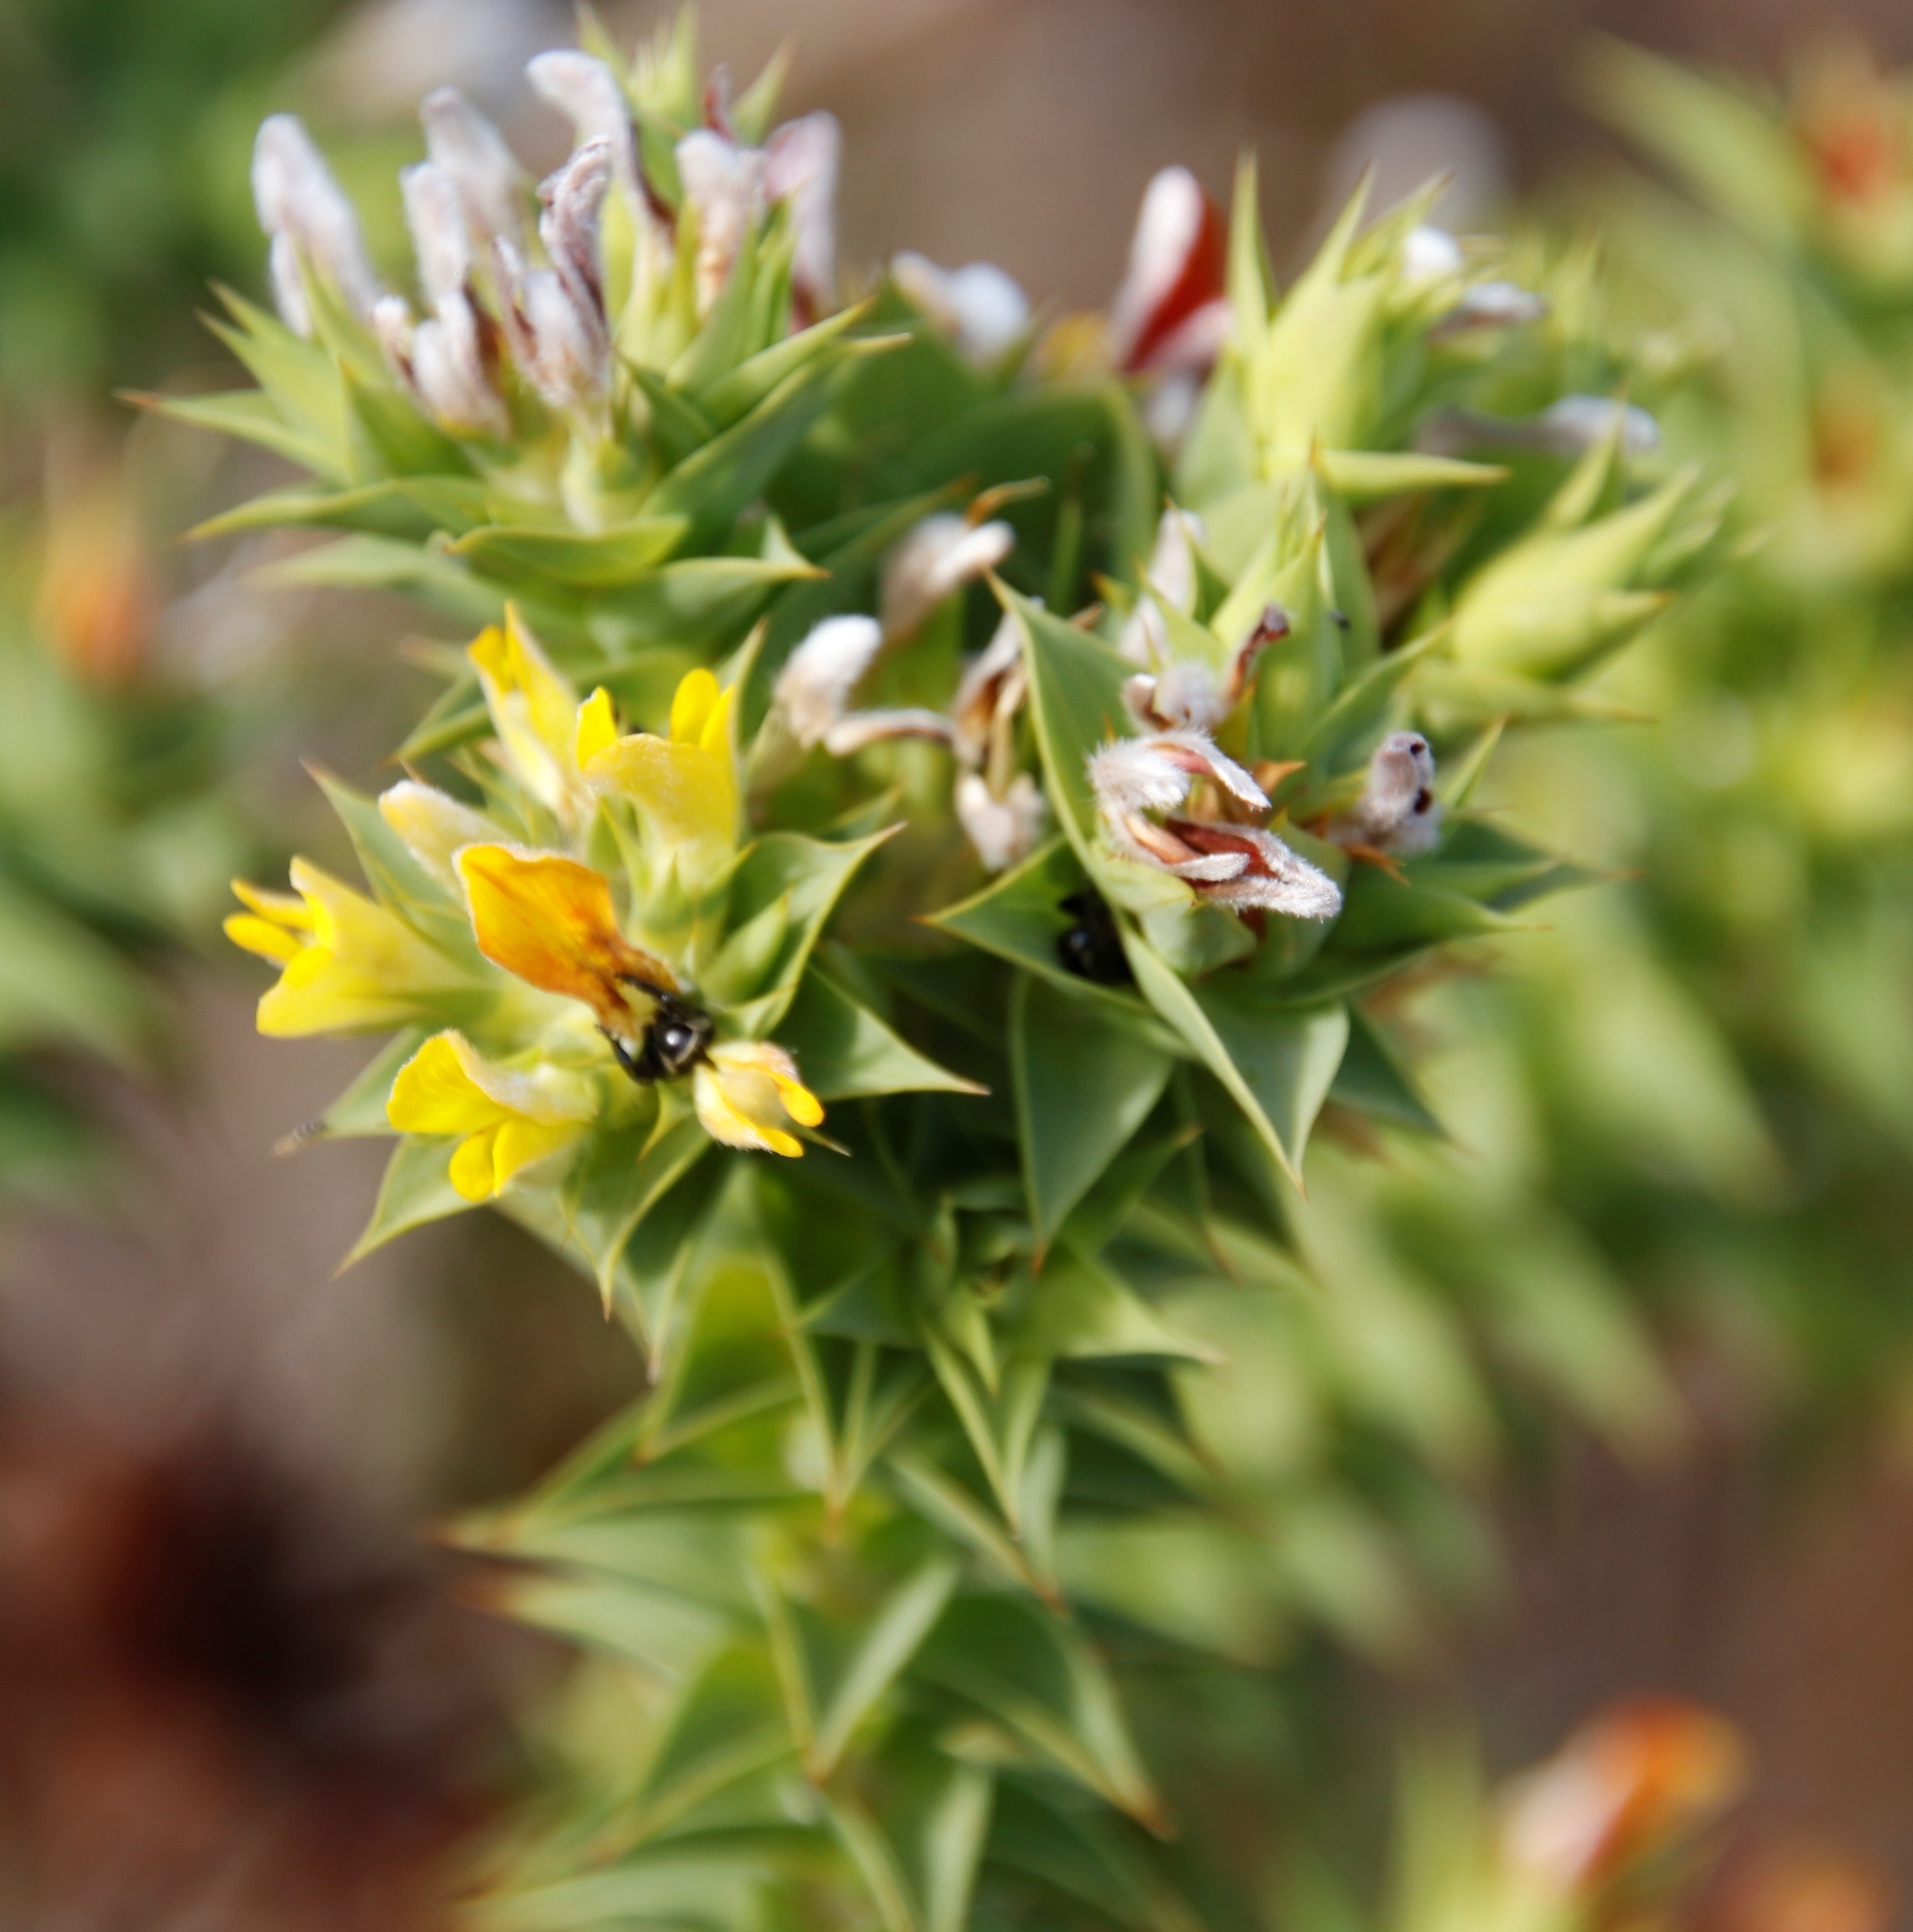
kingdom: Plantae
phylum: Tracheophyta
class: Magnoliopsida
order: Fabales
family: Fabaceae
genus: Aspalathus
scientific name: Aspalathus cordata
